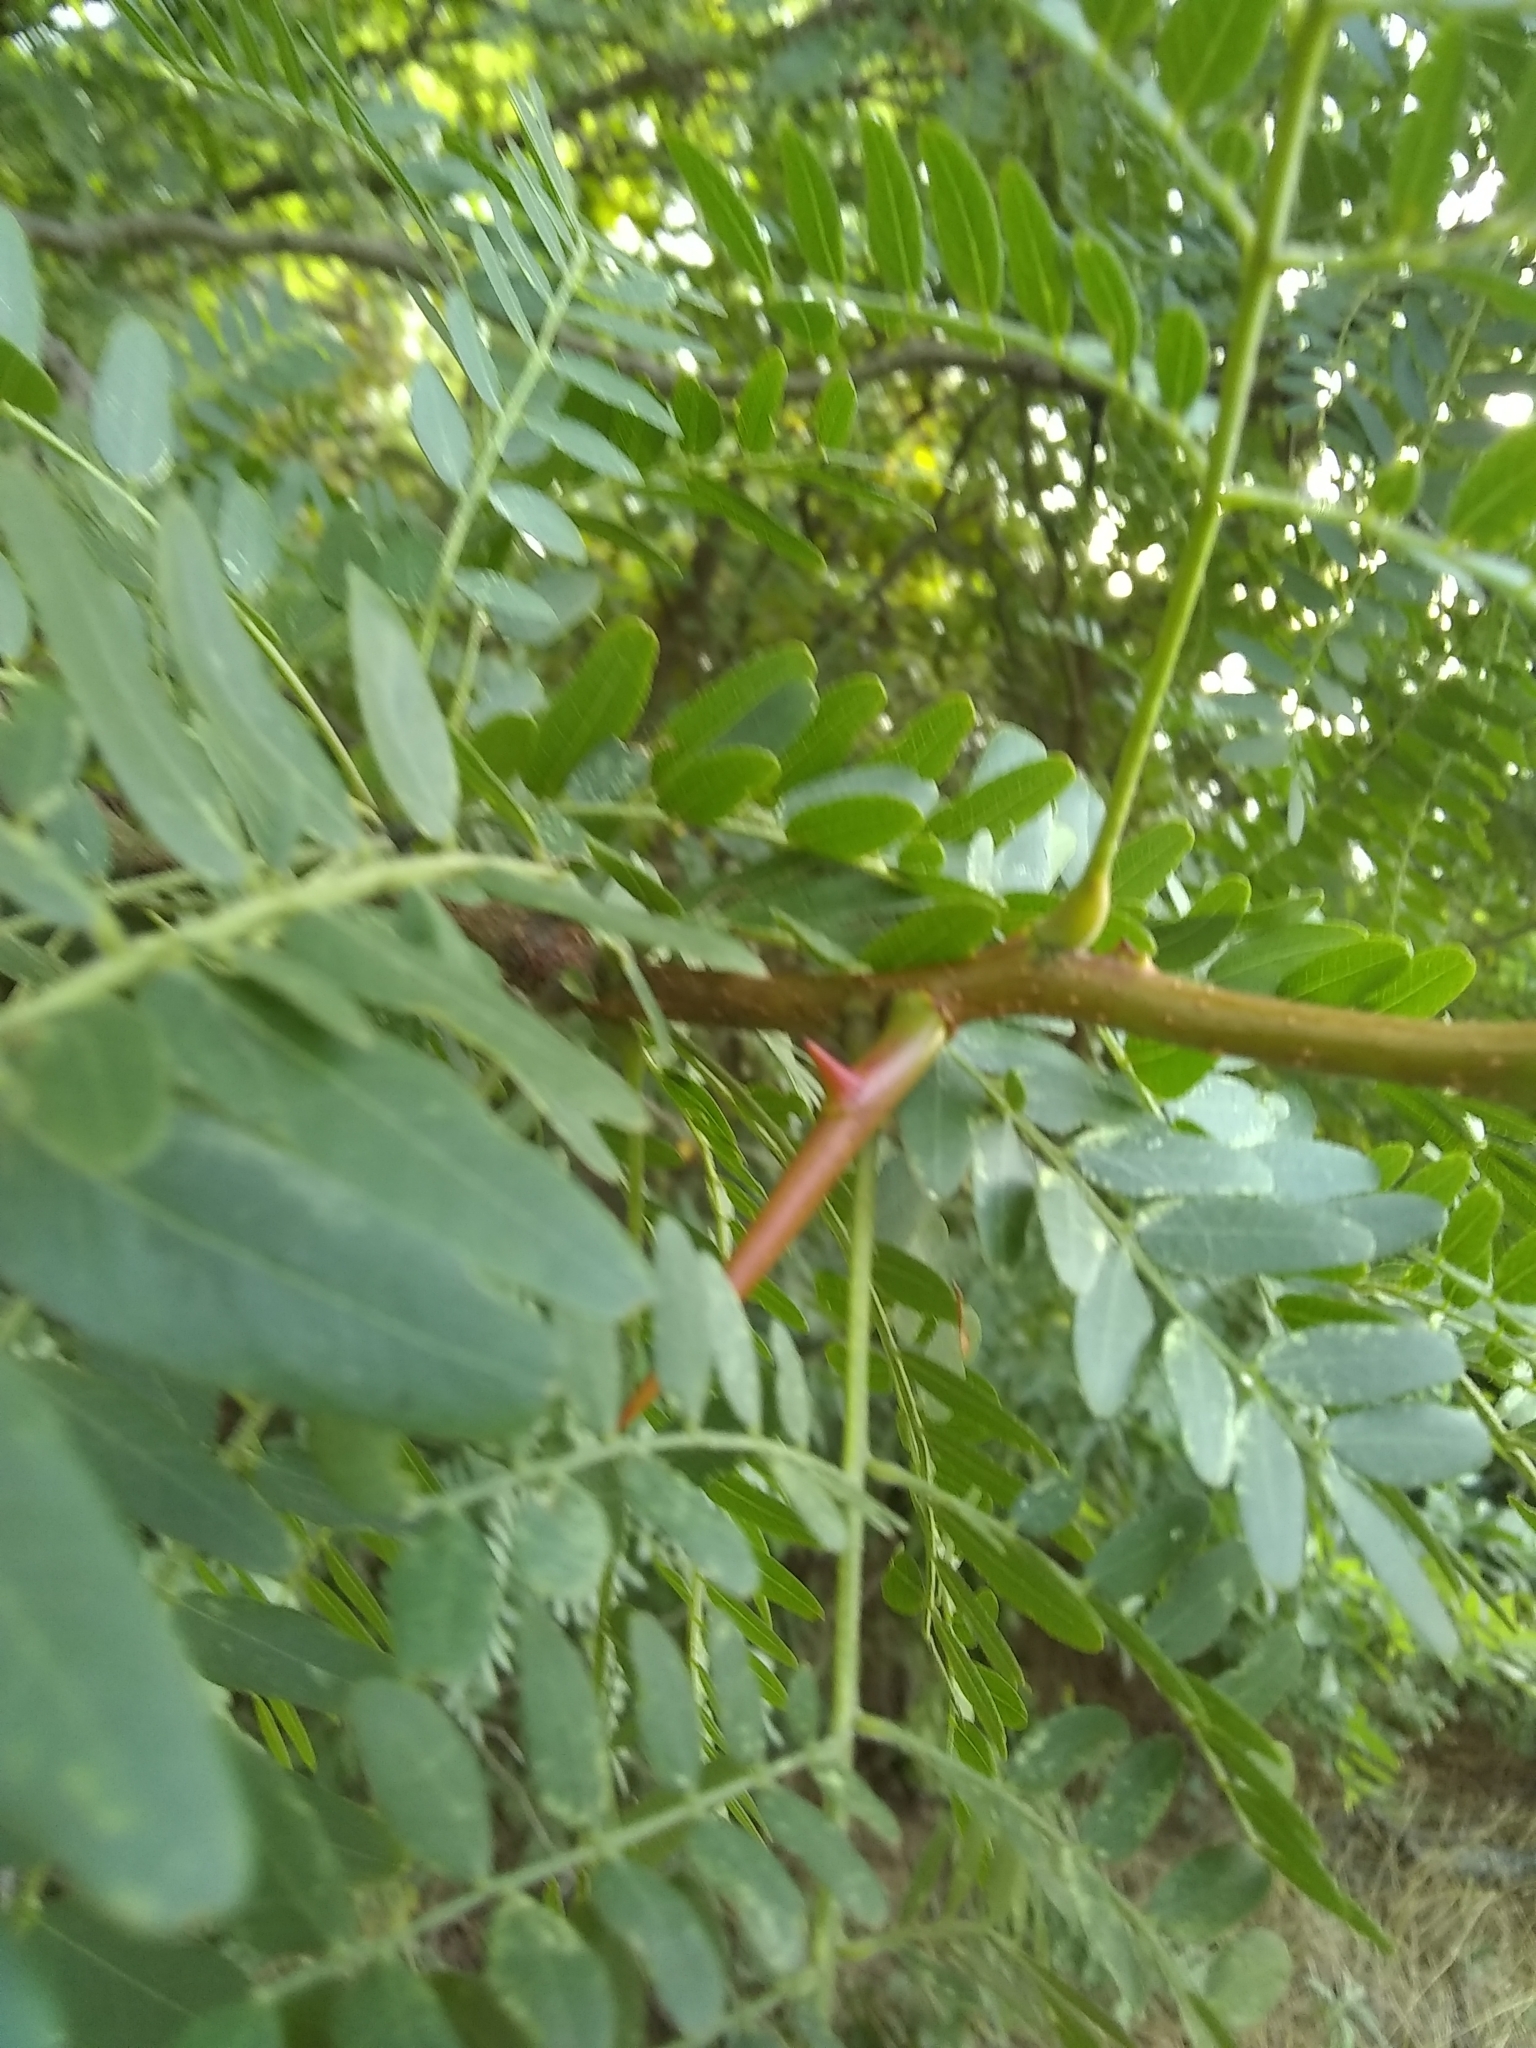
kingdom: Plantae
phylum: Tracheophyta
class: Magnoliopsida
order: Fabales
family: Fabaceae
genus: Gleditsia
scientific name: Gleditsia triacanthos
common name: Common honeylocust
